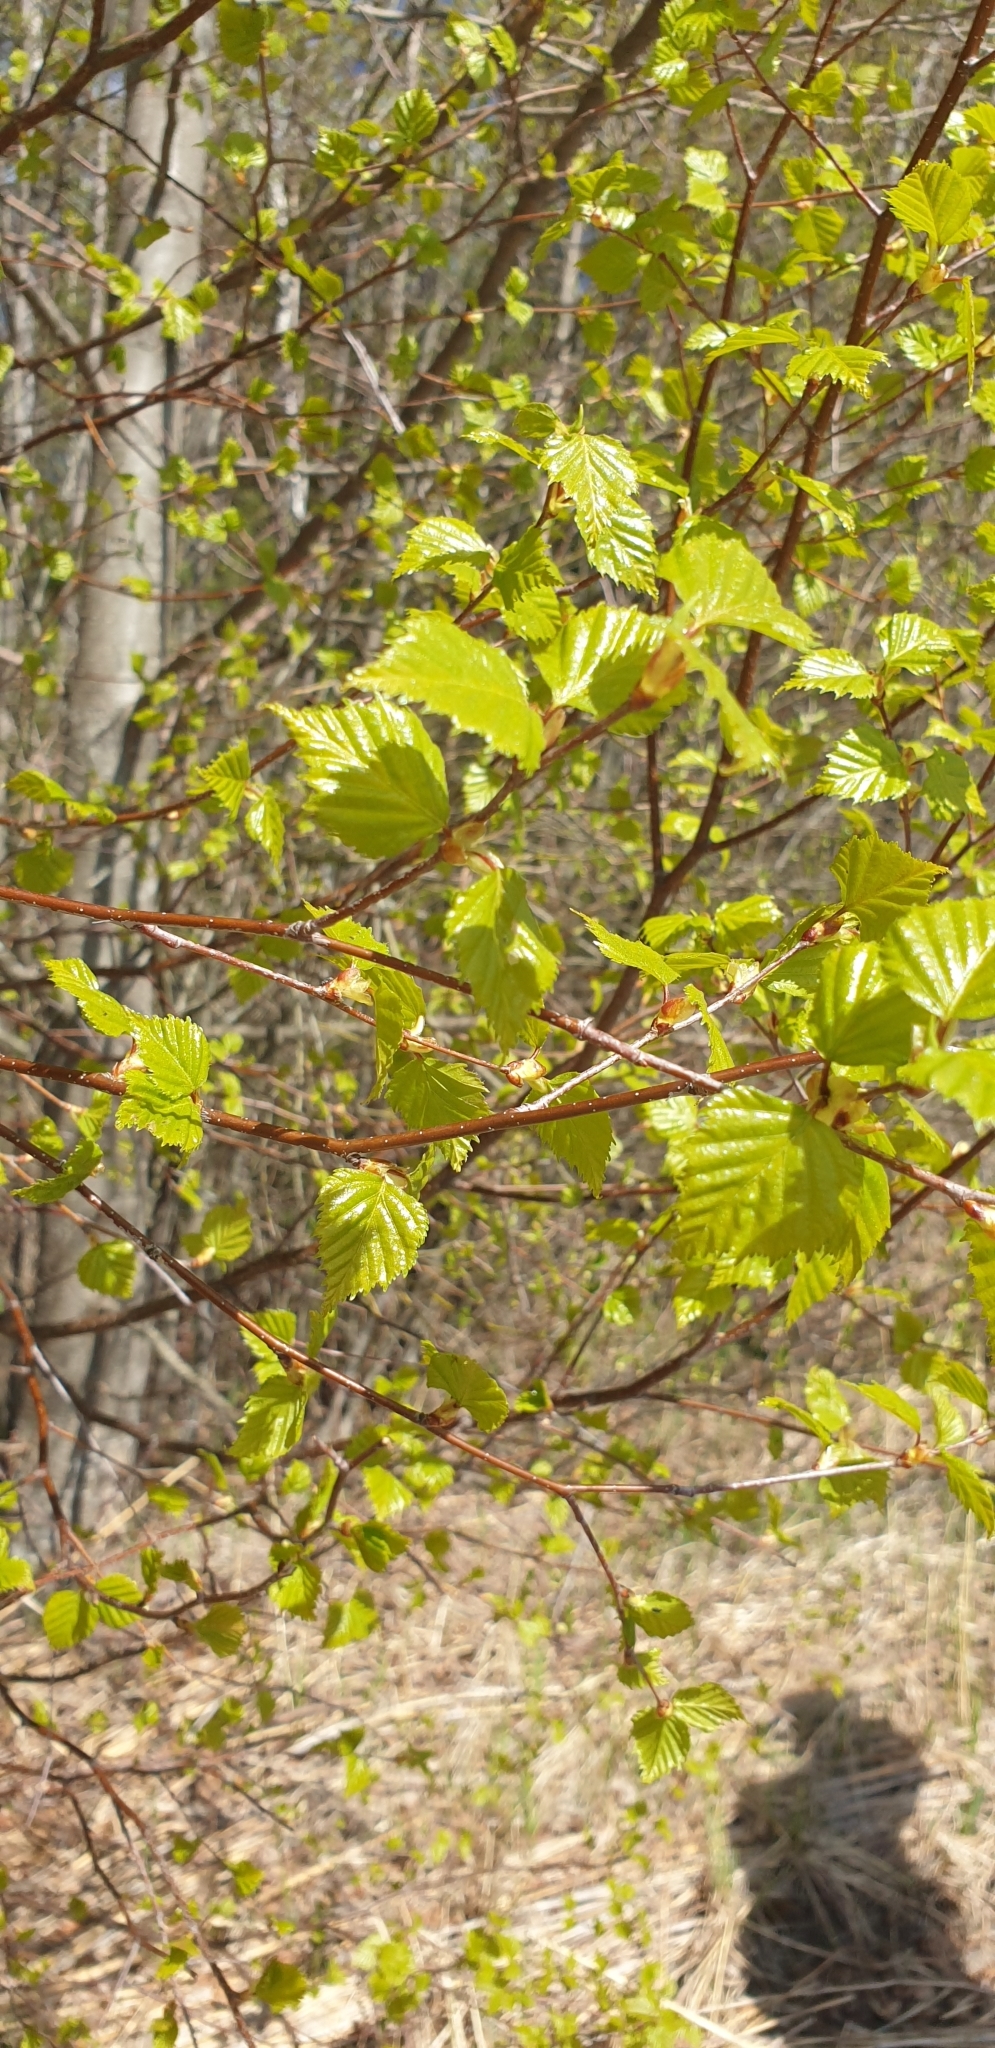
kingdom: Plantae
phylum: Tracheophyta
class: Magnoliopsida
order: Fagales
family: Betulaceae
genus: Betula
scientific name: Betula pendula
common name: Silver birch
